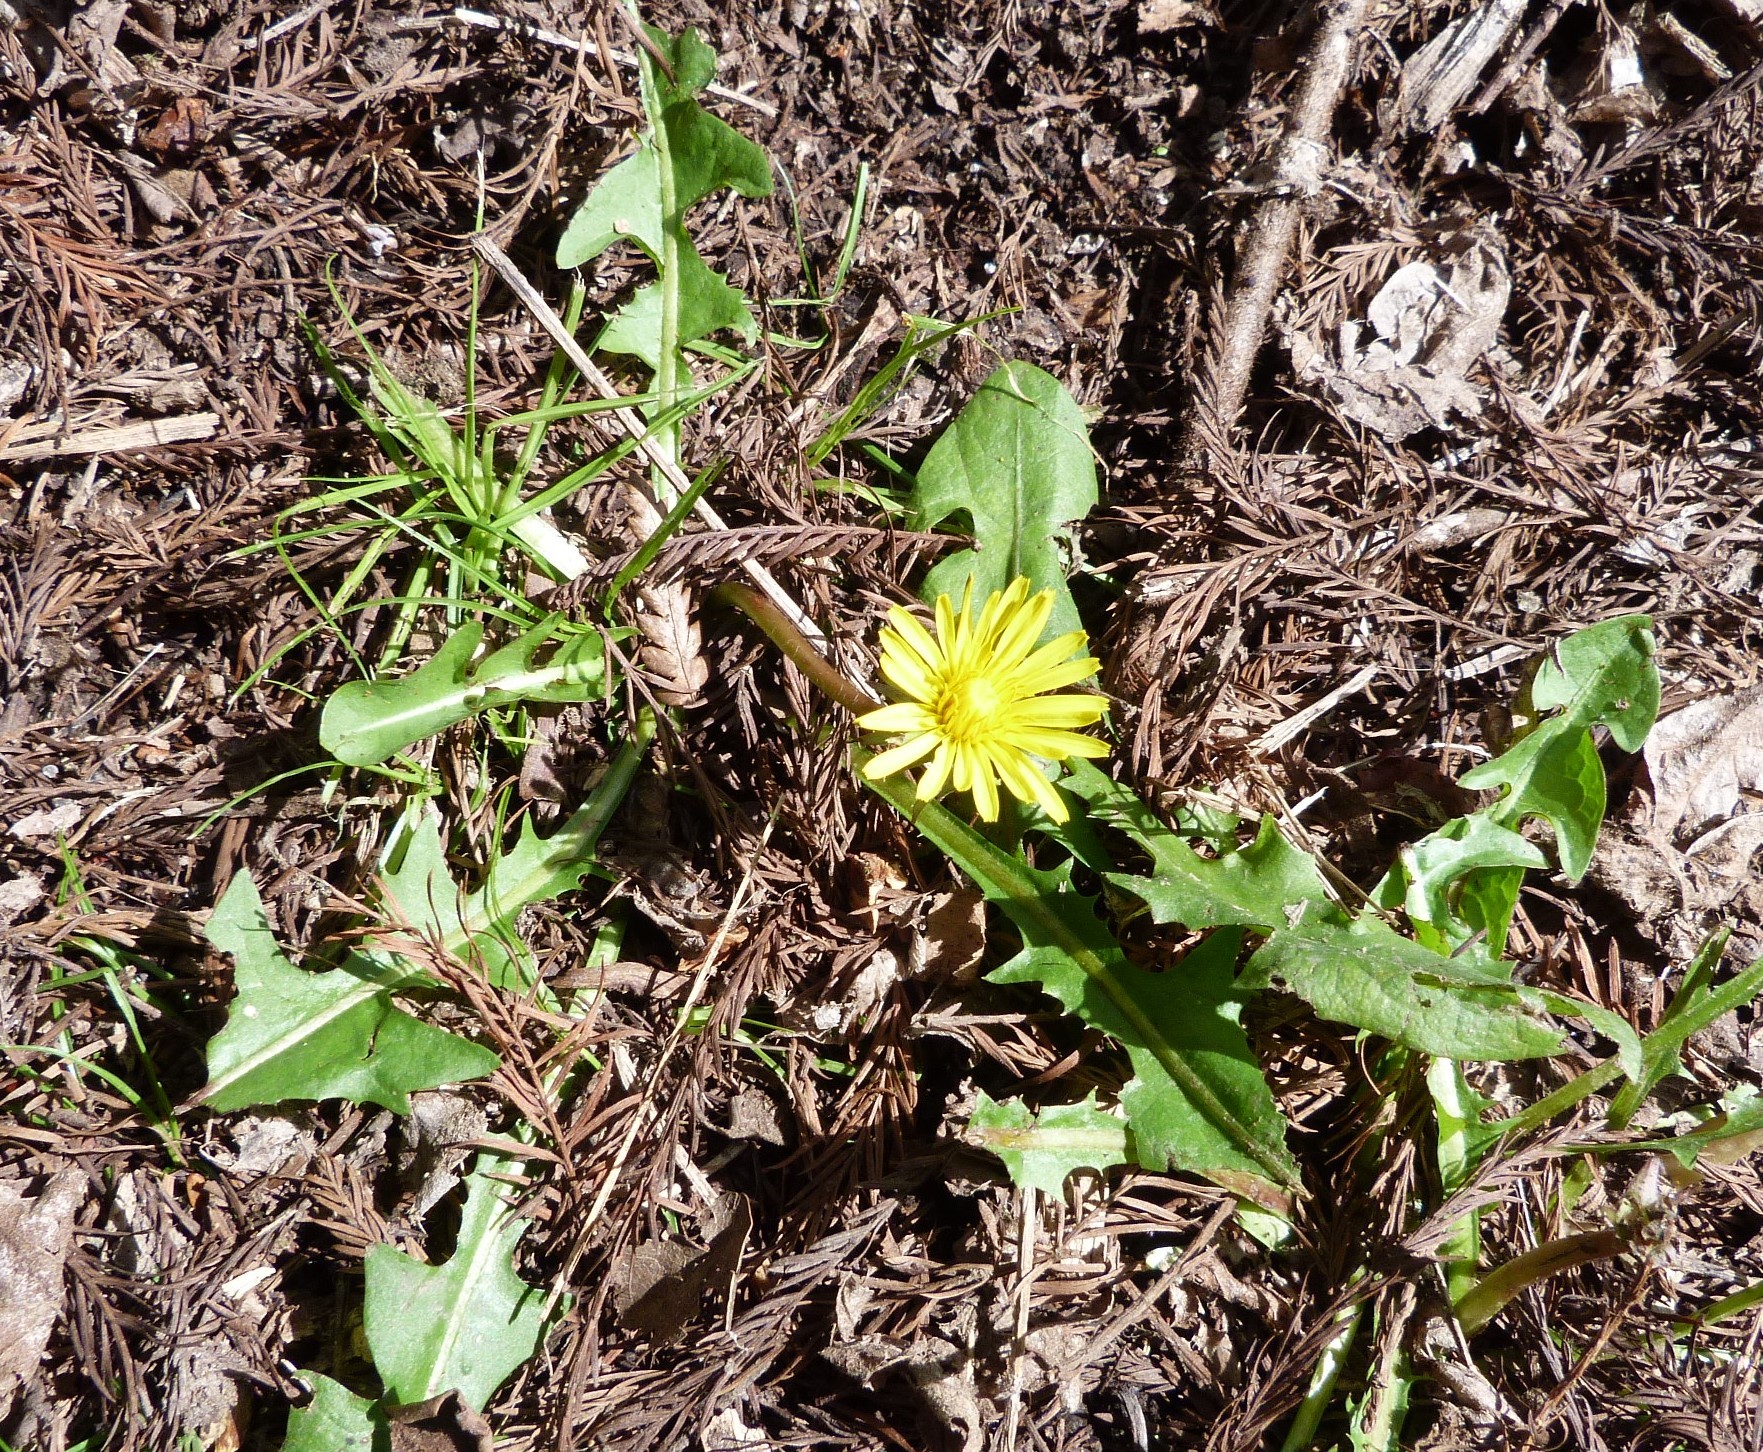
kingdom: Plantae
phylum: Tracheophyta
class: Magnoliopsida
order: Asterales
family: Asteraceae
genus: Taraxacum
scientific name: Taraxacum officinale
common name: Common dandelion
